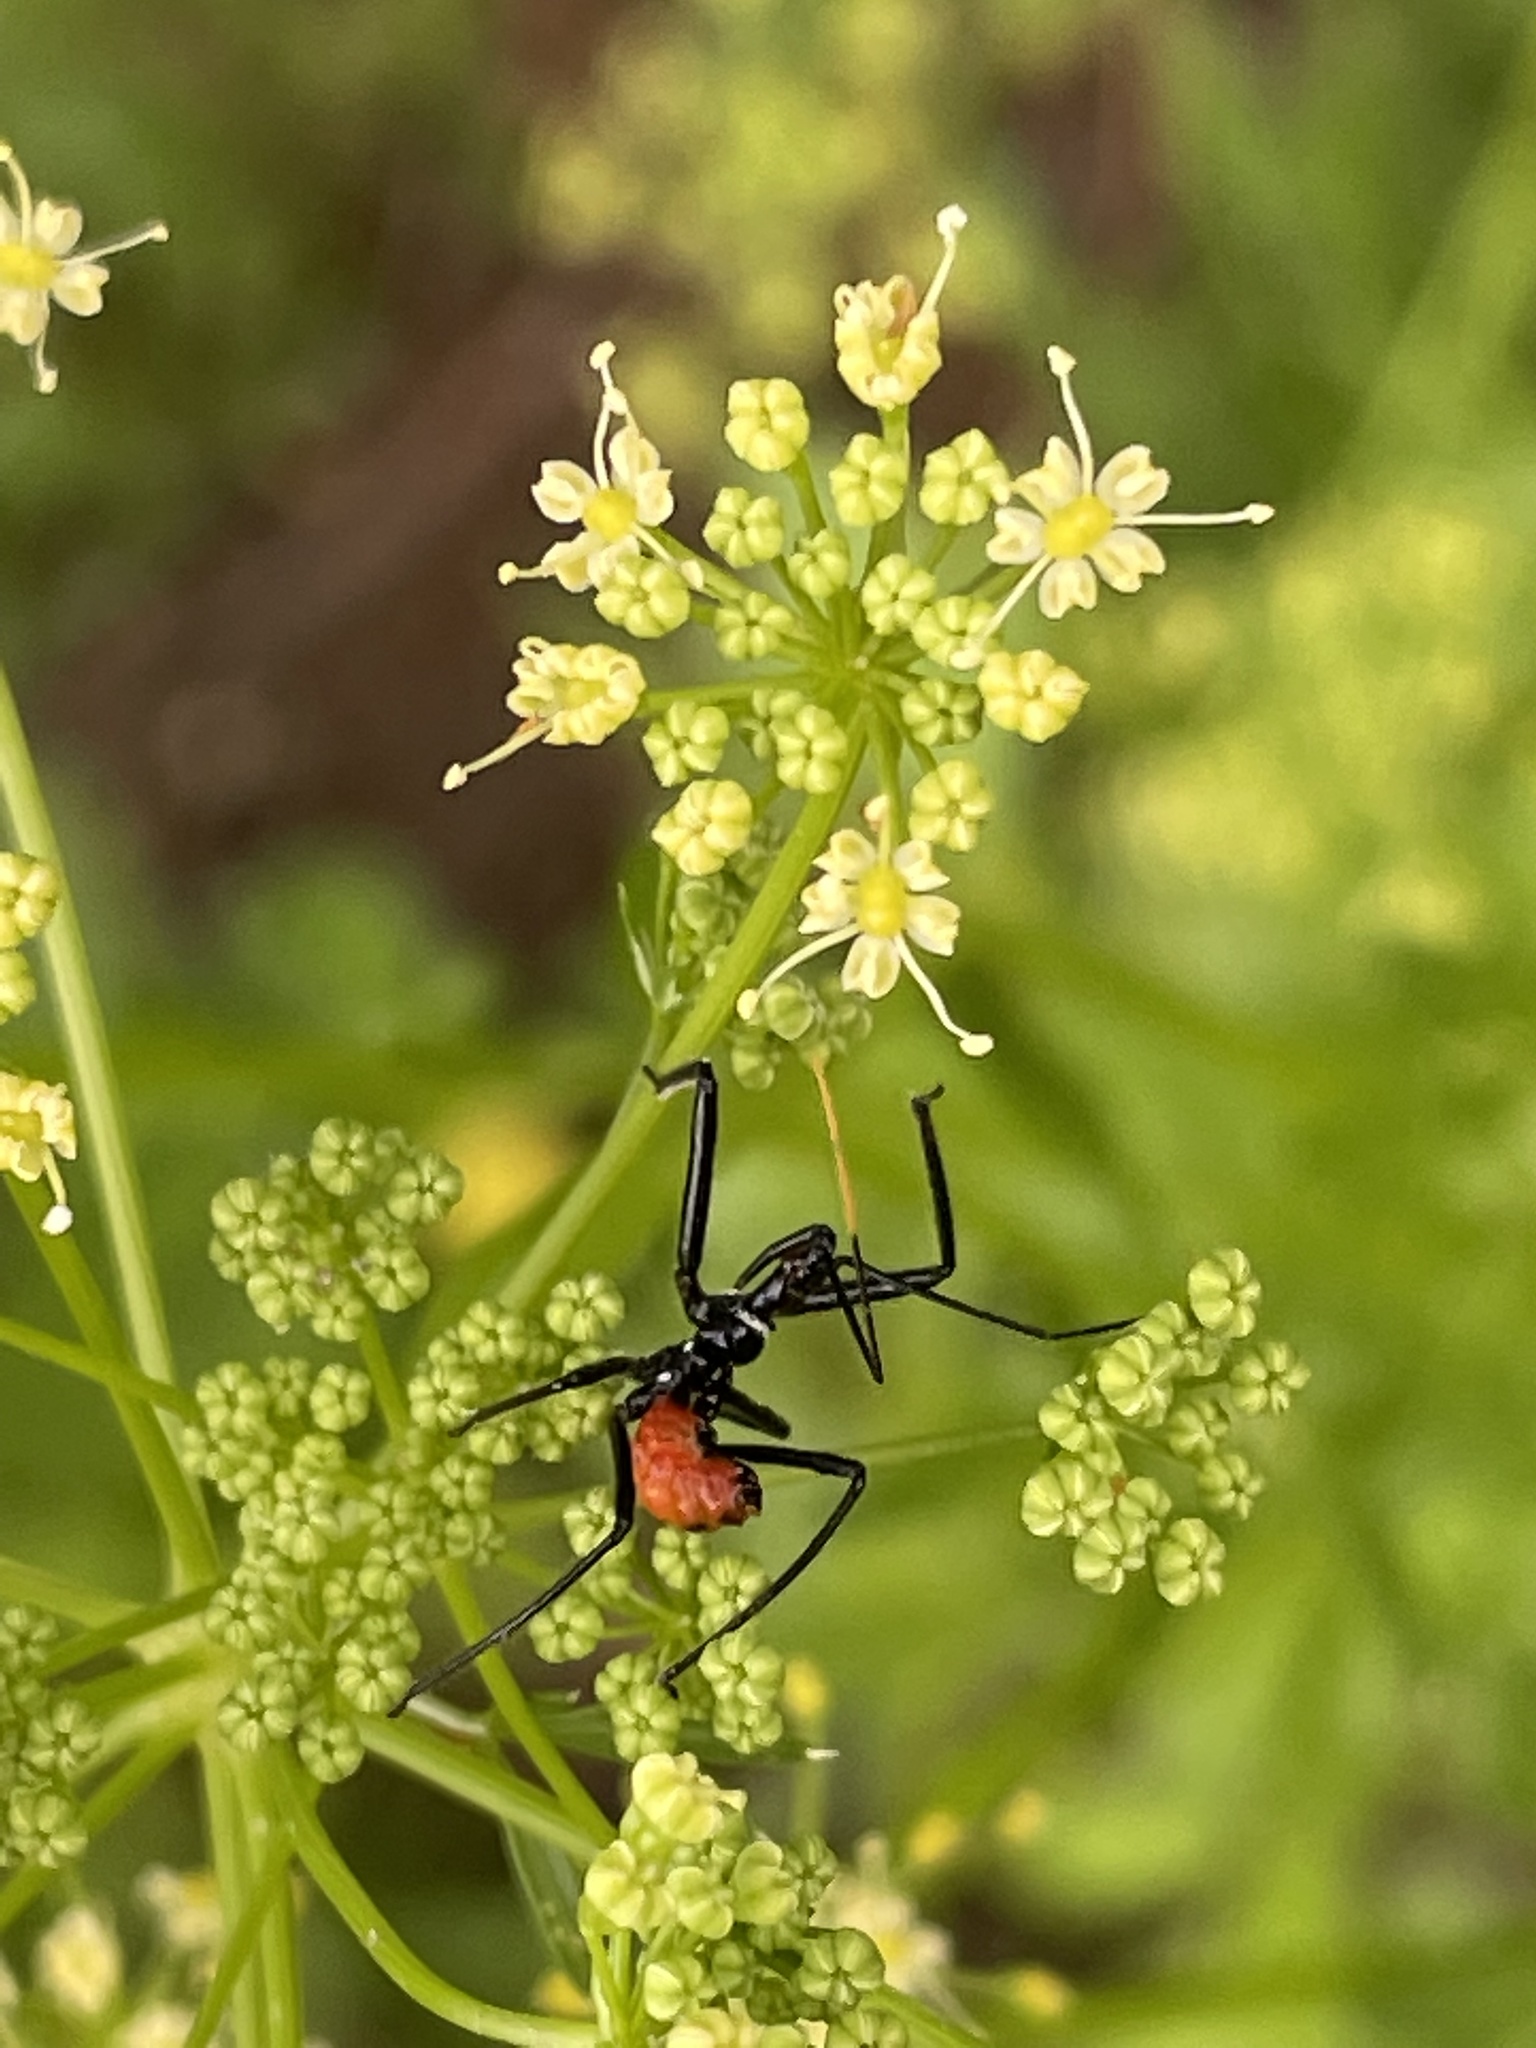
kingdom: Animalia
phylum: Arthropoda
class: Insecta
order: Hemiptera
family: Reduviidae
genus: Arilus
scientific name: Arilus cristatus
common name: North american wheel bug
